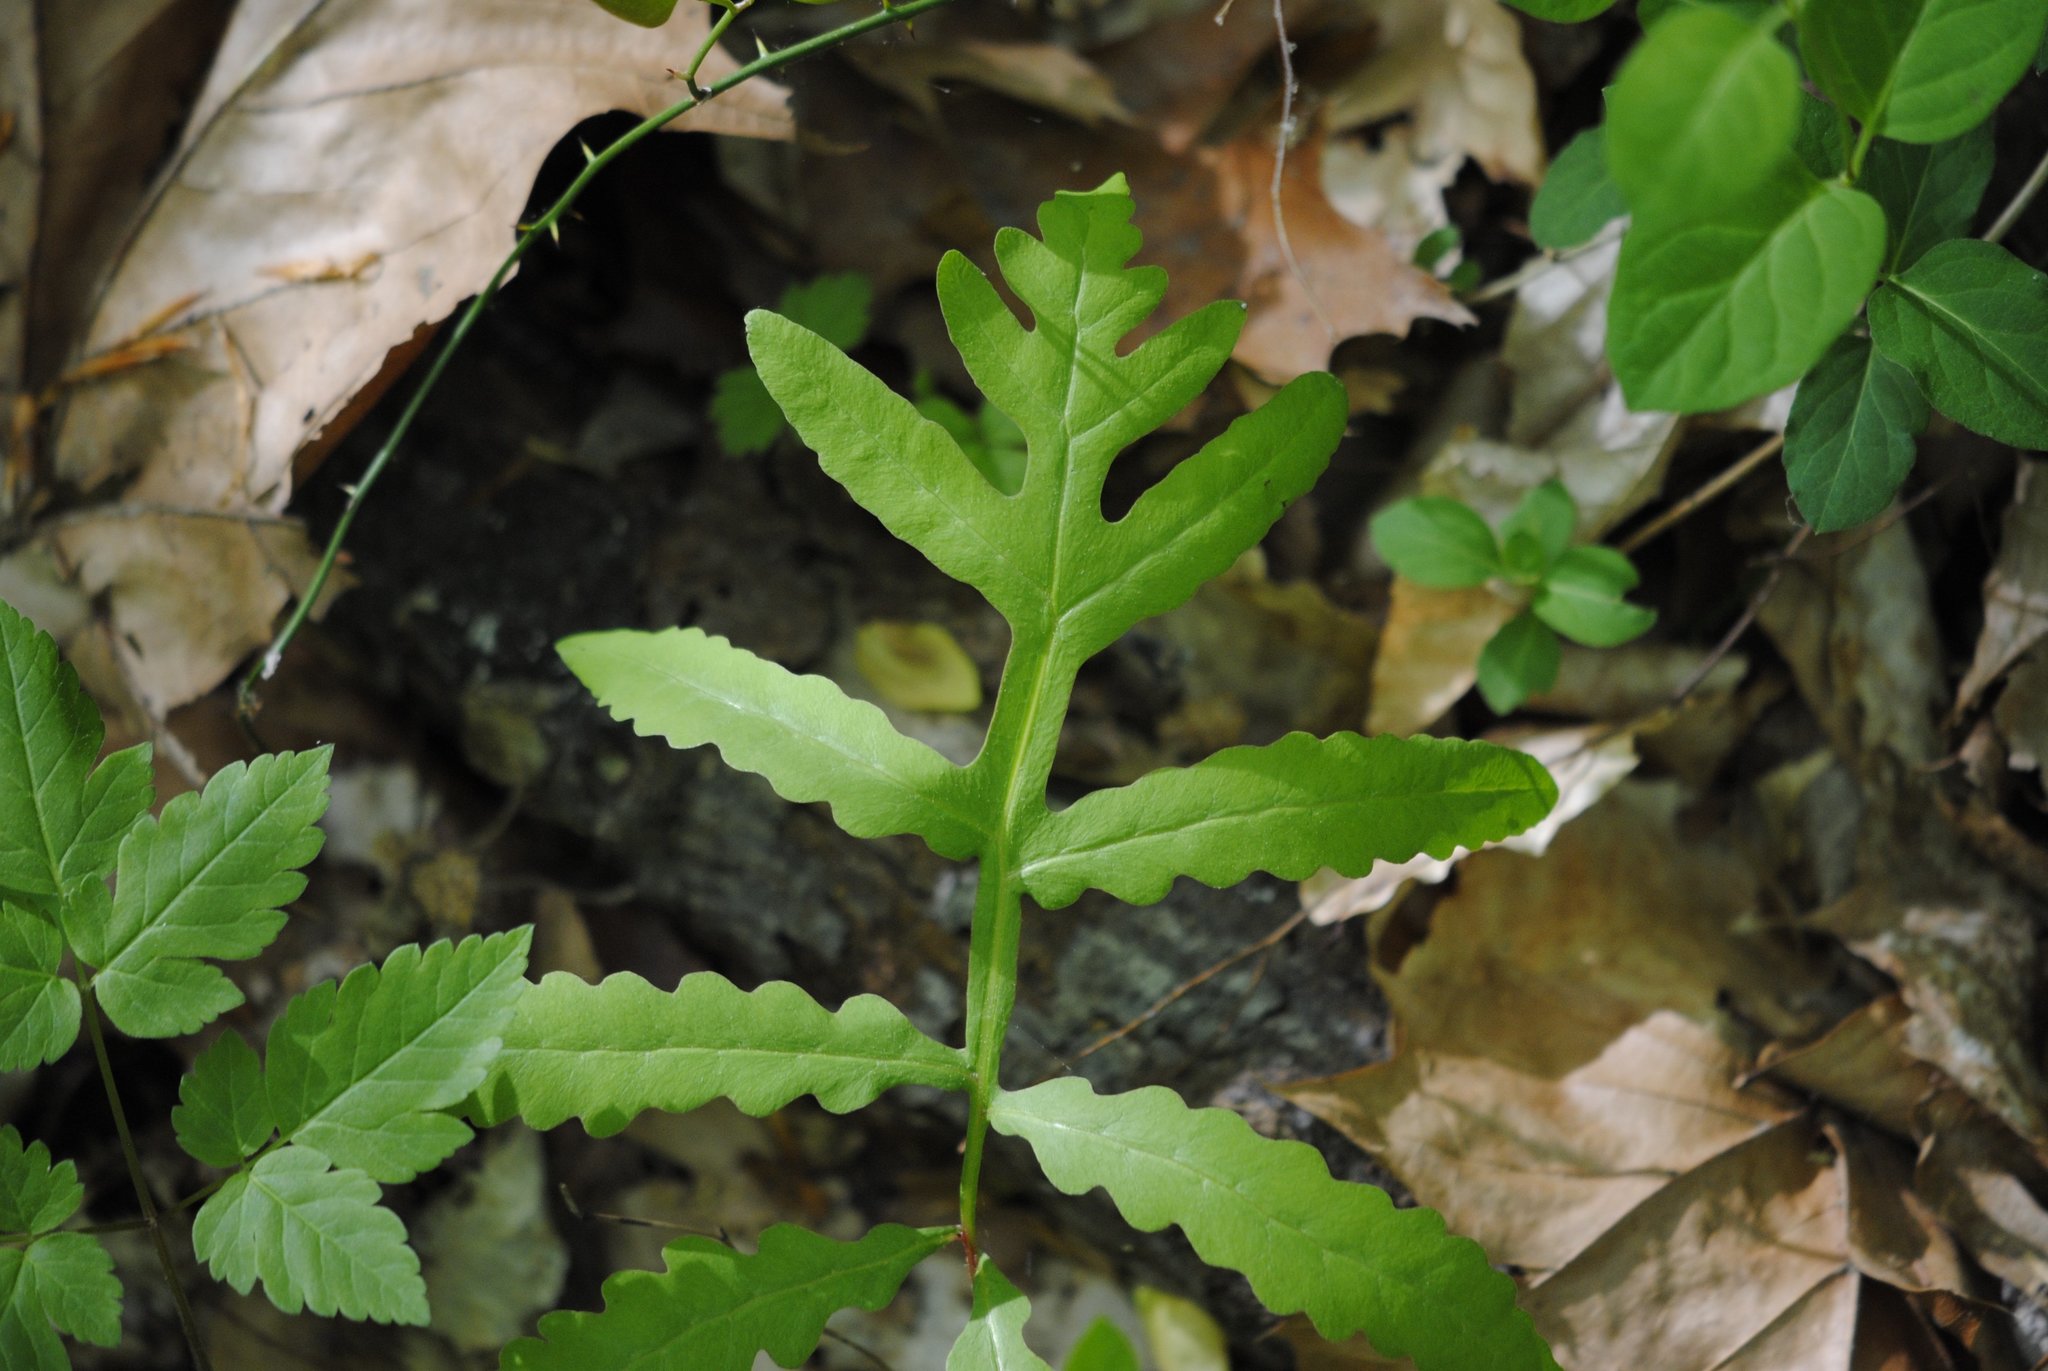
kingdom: Plantae
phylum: Tracheophyta
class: Polypodiopsida
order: Polypodiales
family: Onocleaceae
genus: Onoclea
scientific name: Onoclea sensibilis
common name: Sensitive fern
